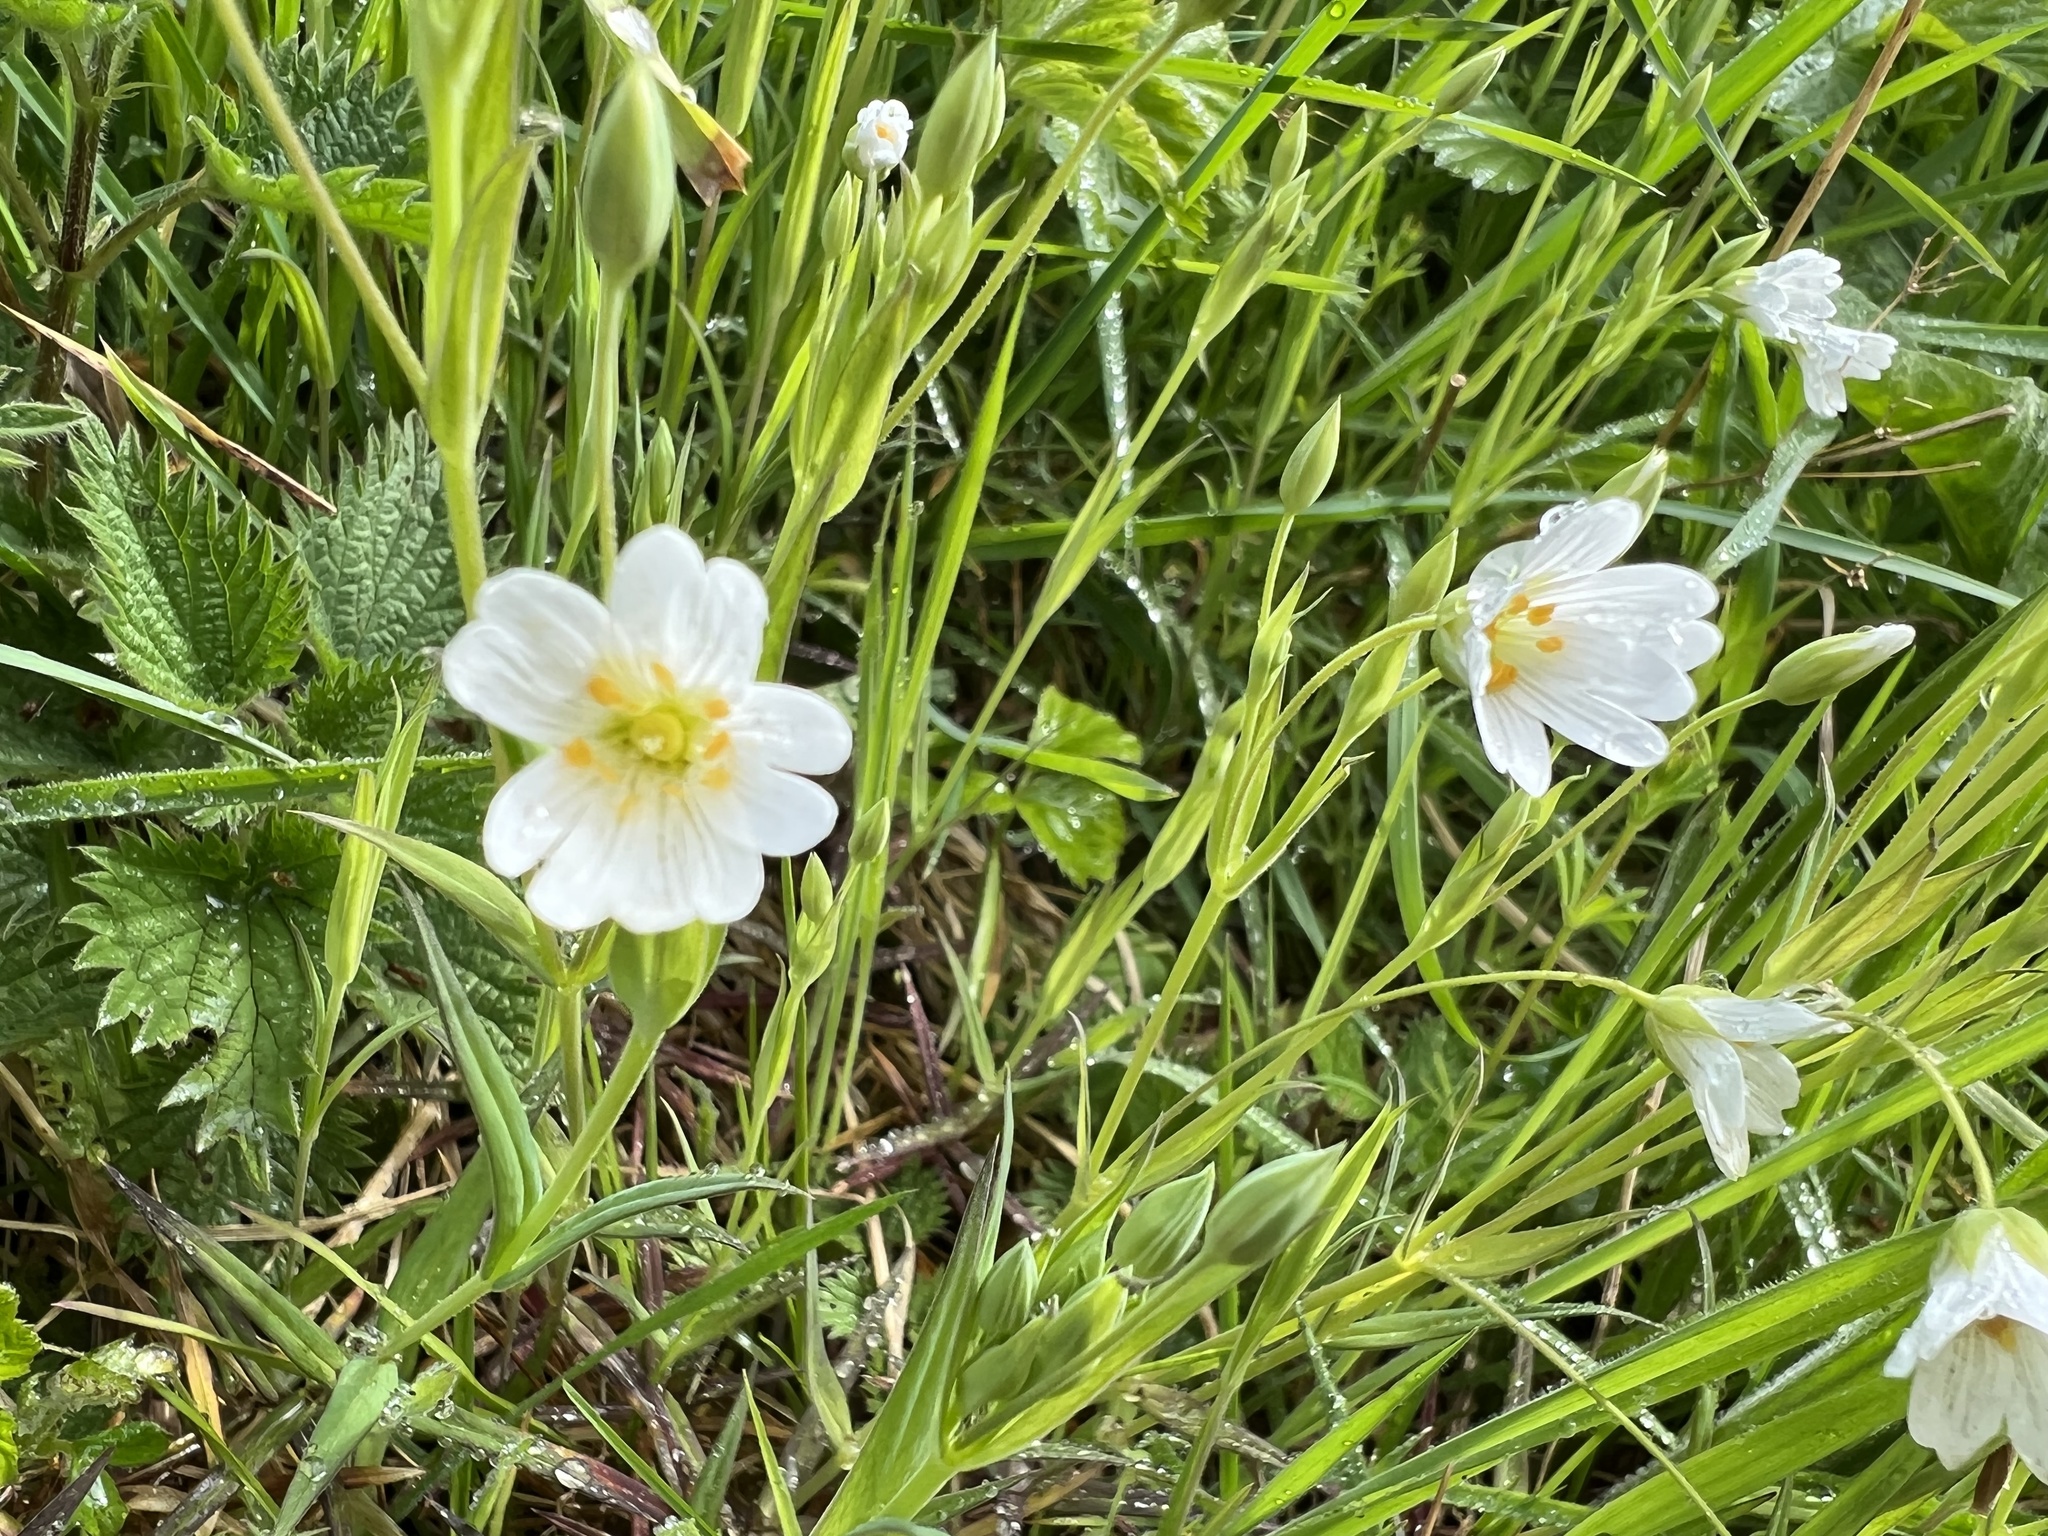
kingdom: Plantae
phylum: Tracheophyta
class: Magnoliopsida
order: Caryophyllales
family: Caryophyllaceae
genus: Rabelera
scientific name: Rabelera holostea
